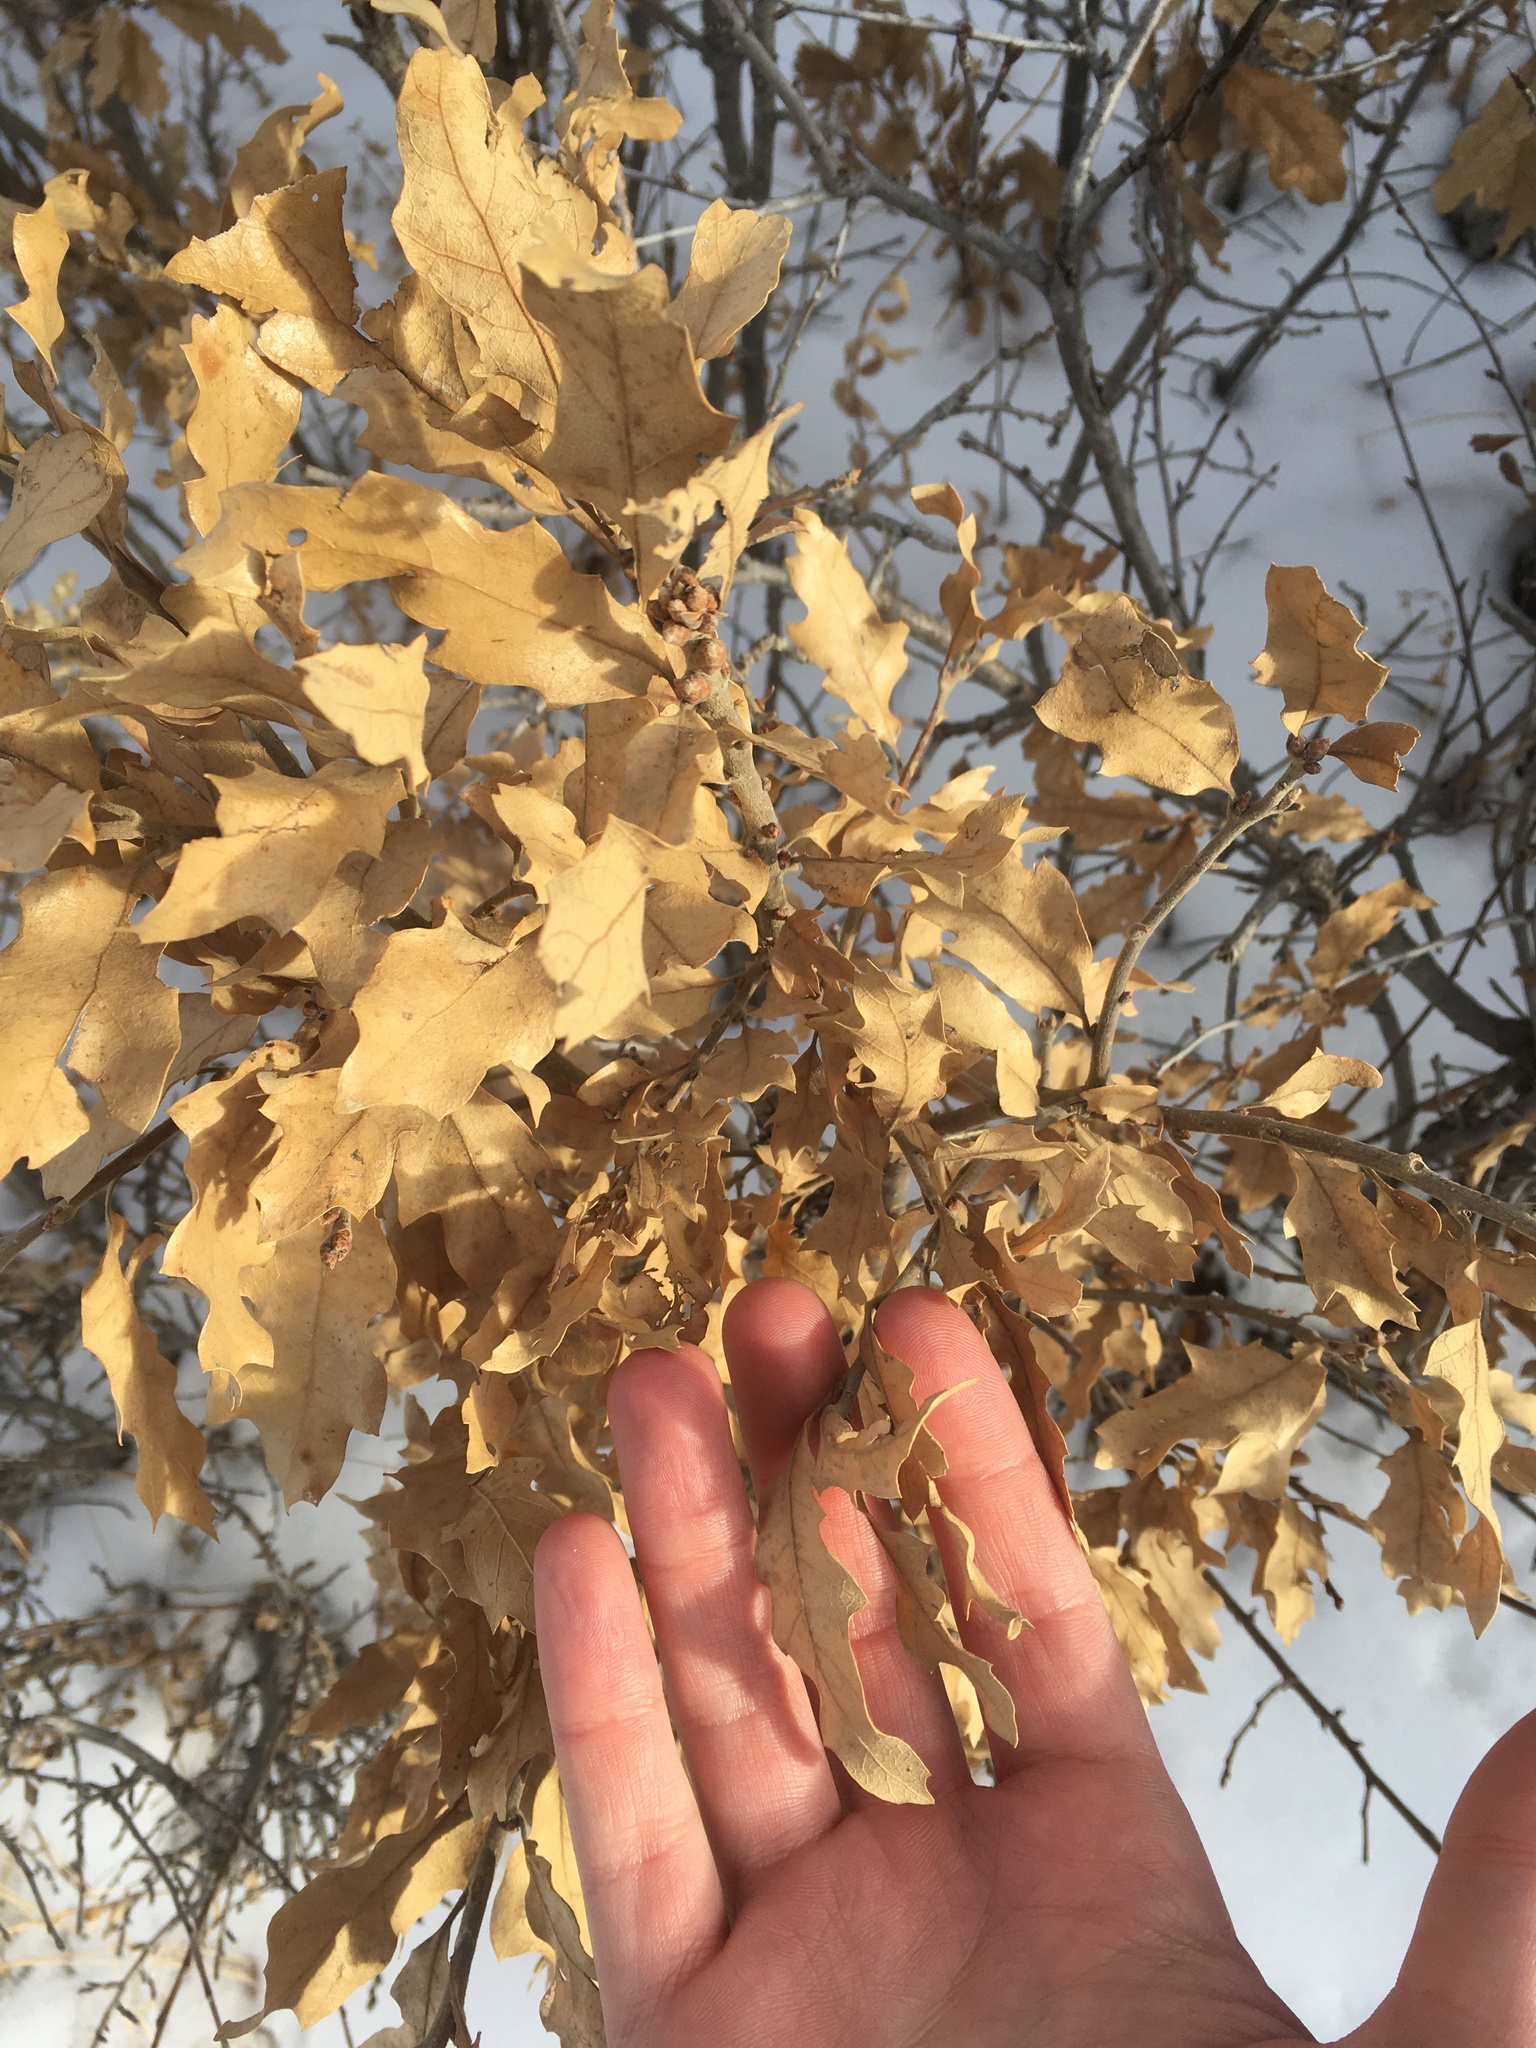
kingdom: Plantae
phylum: Tracheophyta
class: Magnoliopsida
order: Fagales
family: Fagaceae
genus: Quercus
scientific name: Quercus undulata
